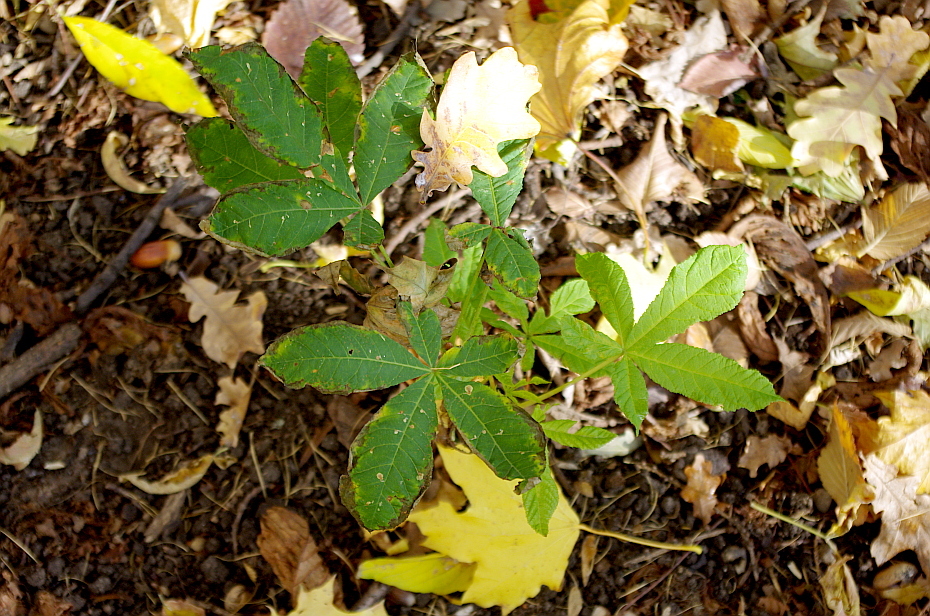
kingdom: Plantae
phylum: Tracheophyta
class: Magnoliopsida
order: Sapindales
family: Sapindaceae
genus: Aesculus
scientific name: Aesculus hippocastanum
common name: Horse-chestnut
